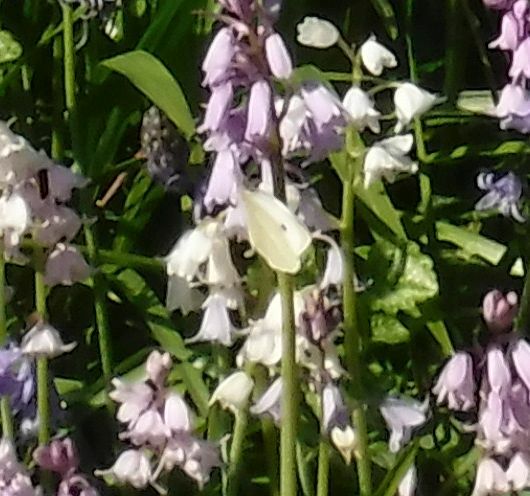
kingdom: Animalia
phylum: Arthropoda
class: Insecta
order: Lepidoptera
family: Pieridae
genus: Pieris
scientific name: Pieris rapae
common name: Small white
